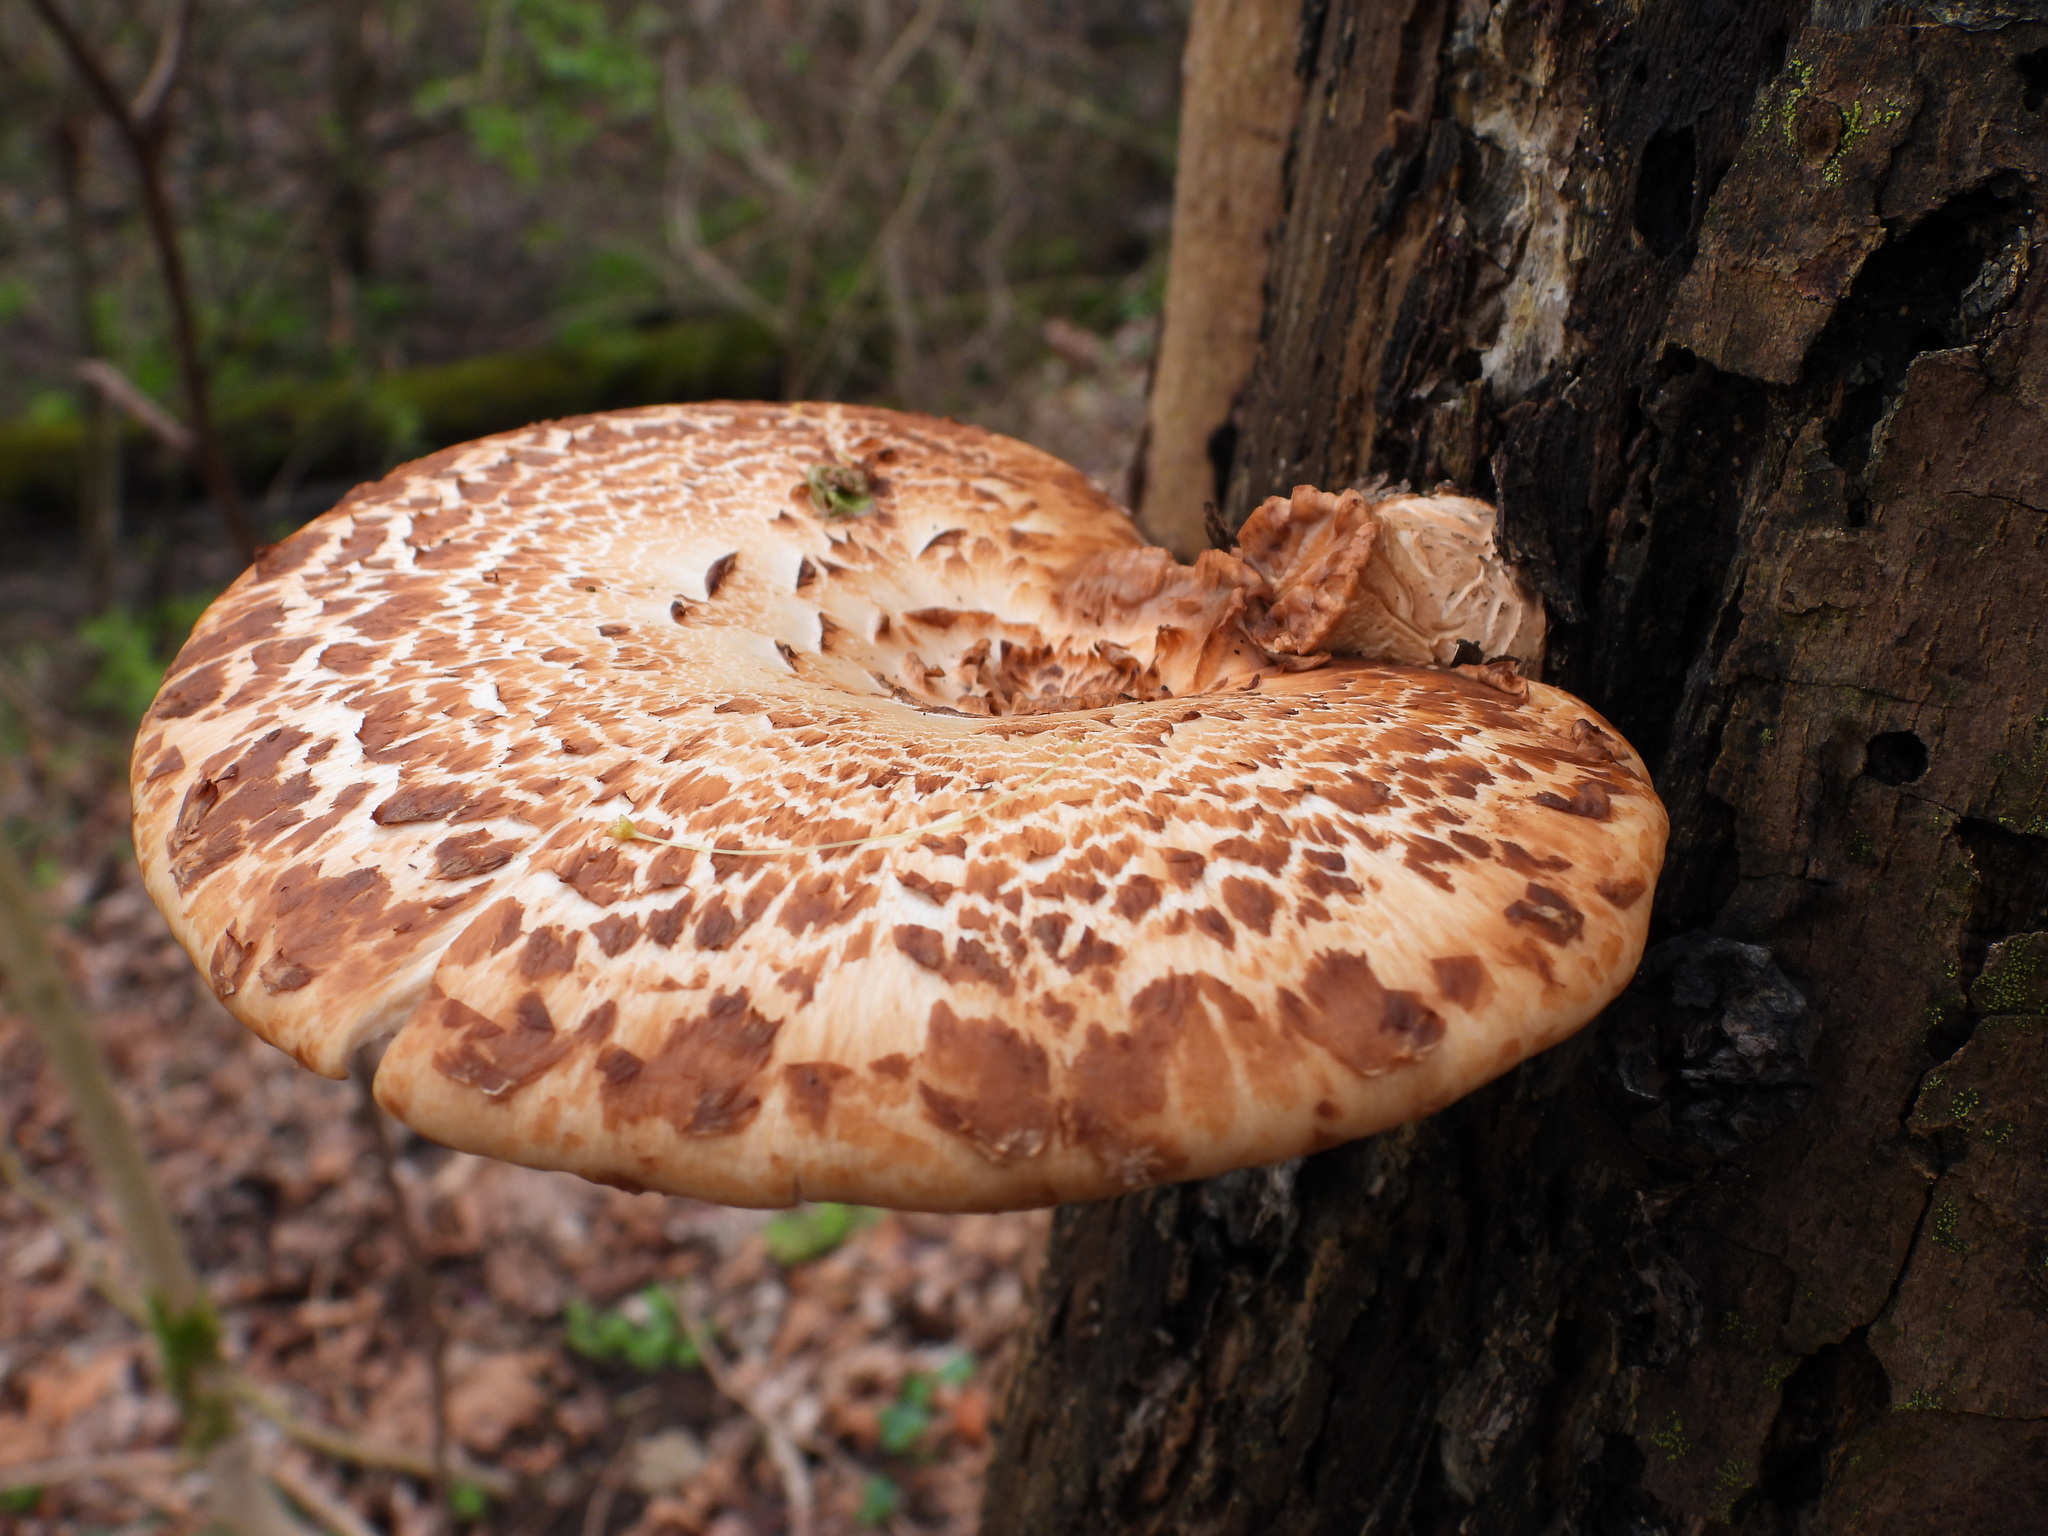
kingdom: Fungi
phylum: Basidiomycota
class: Agaricomycetes
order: Polyporales
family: Polyporaceae
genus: Cerioporus
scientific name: Cerioporus squamosus
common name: Dryad's saddle
